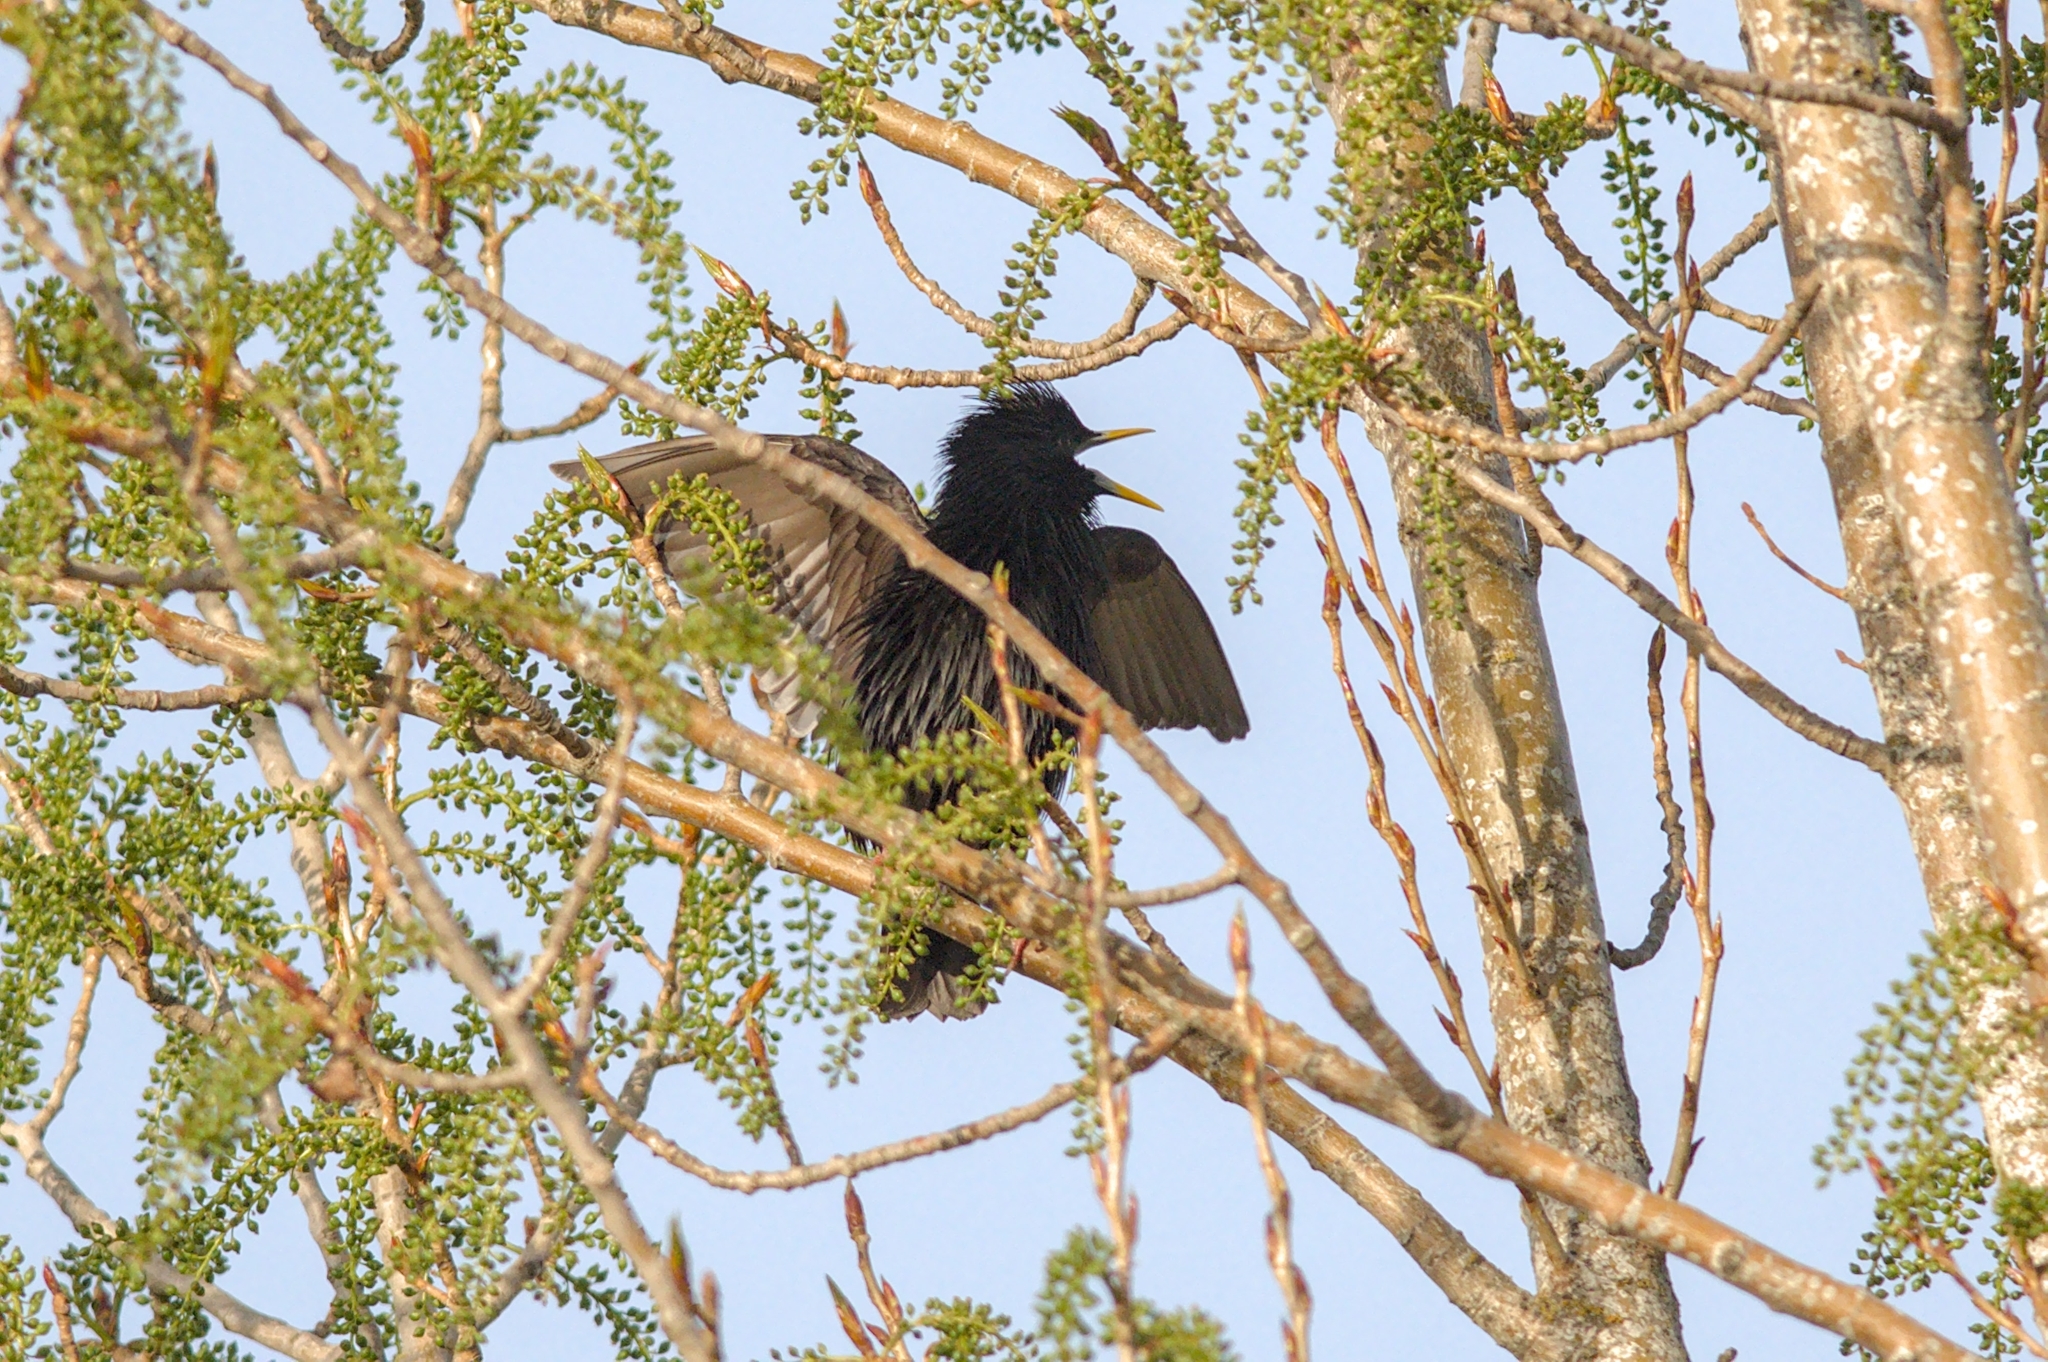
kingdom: Animalia
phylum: Chordata
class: Aves
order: Passeriformes
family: Sturnidae
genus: Sturnus
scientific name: Sturnus unicolor
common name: Spotless starling
